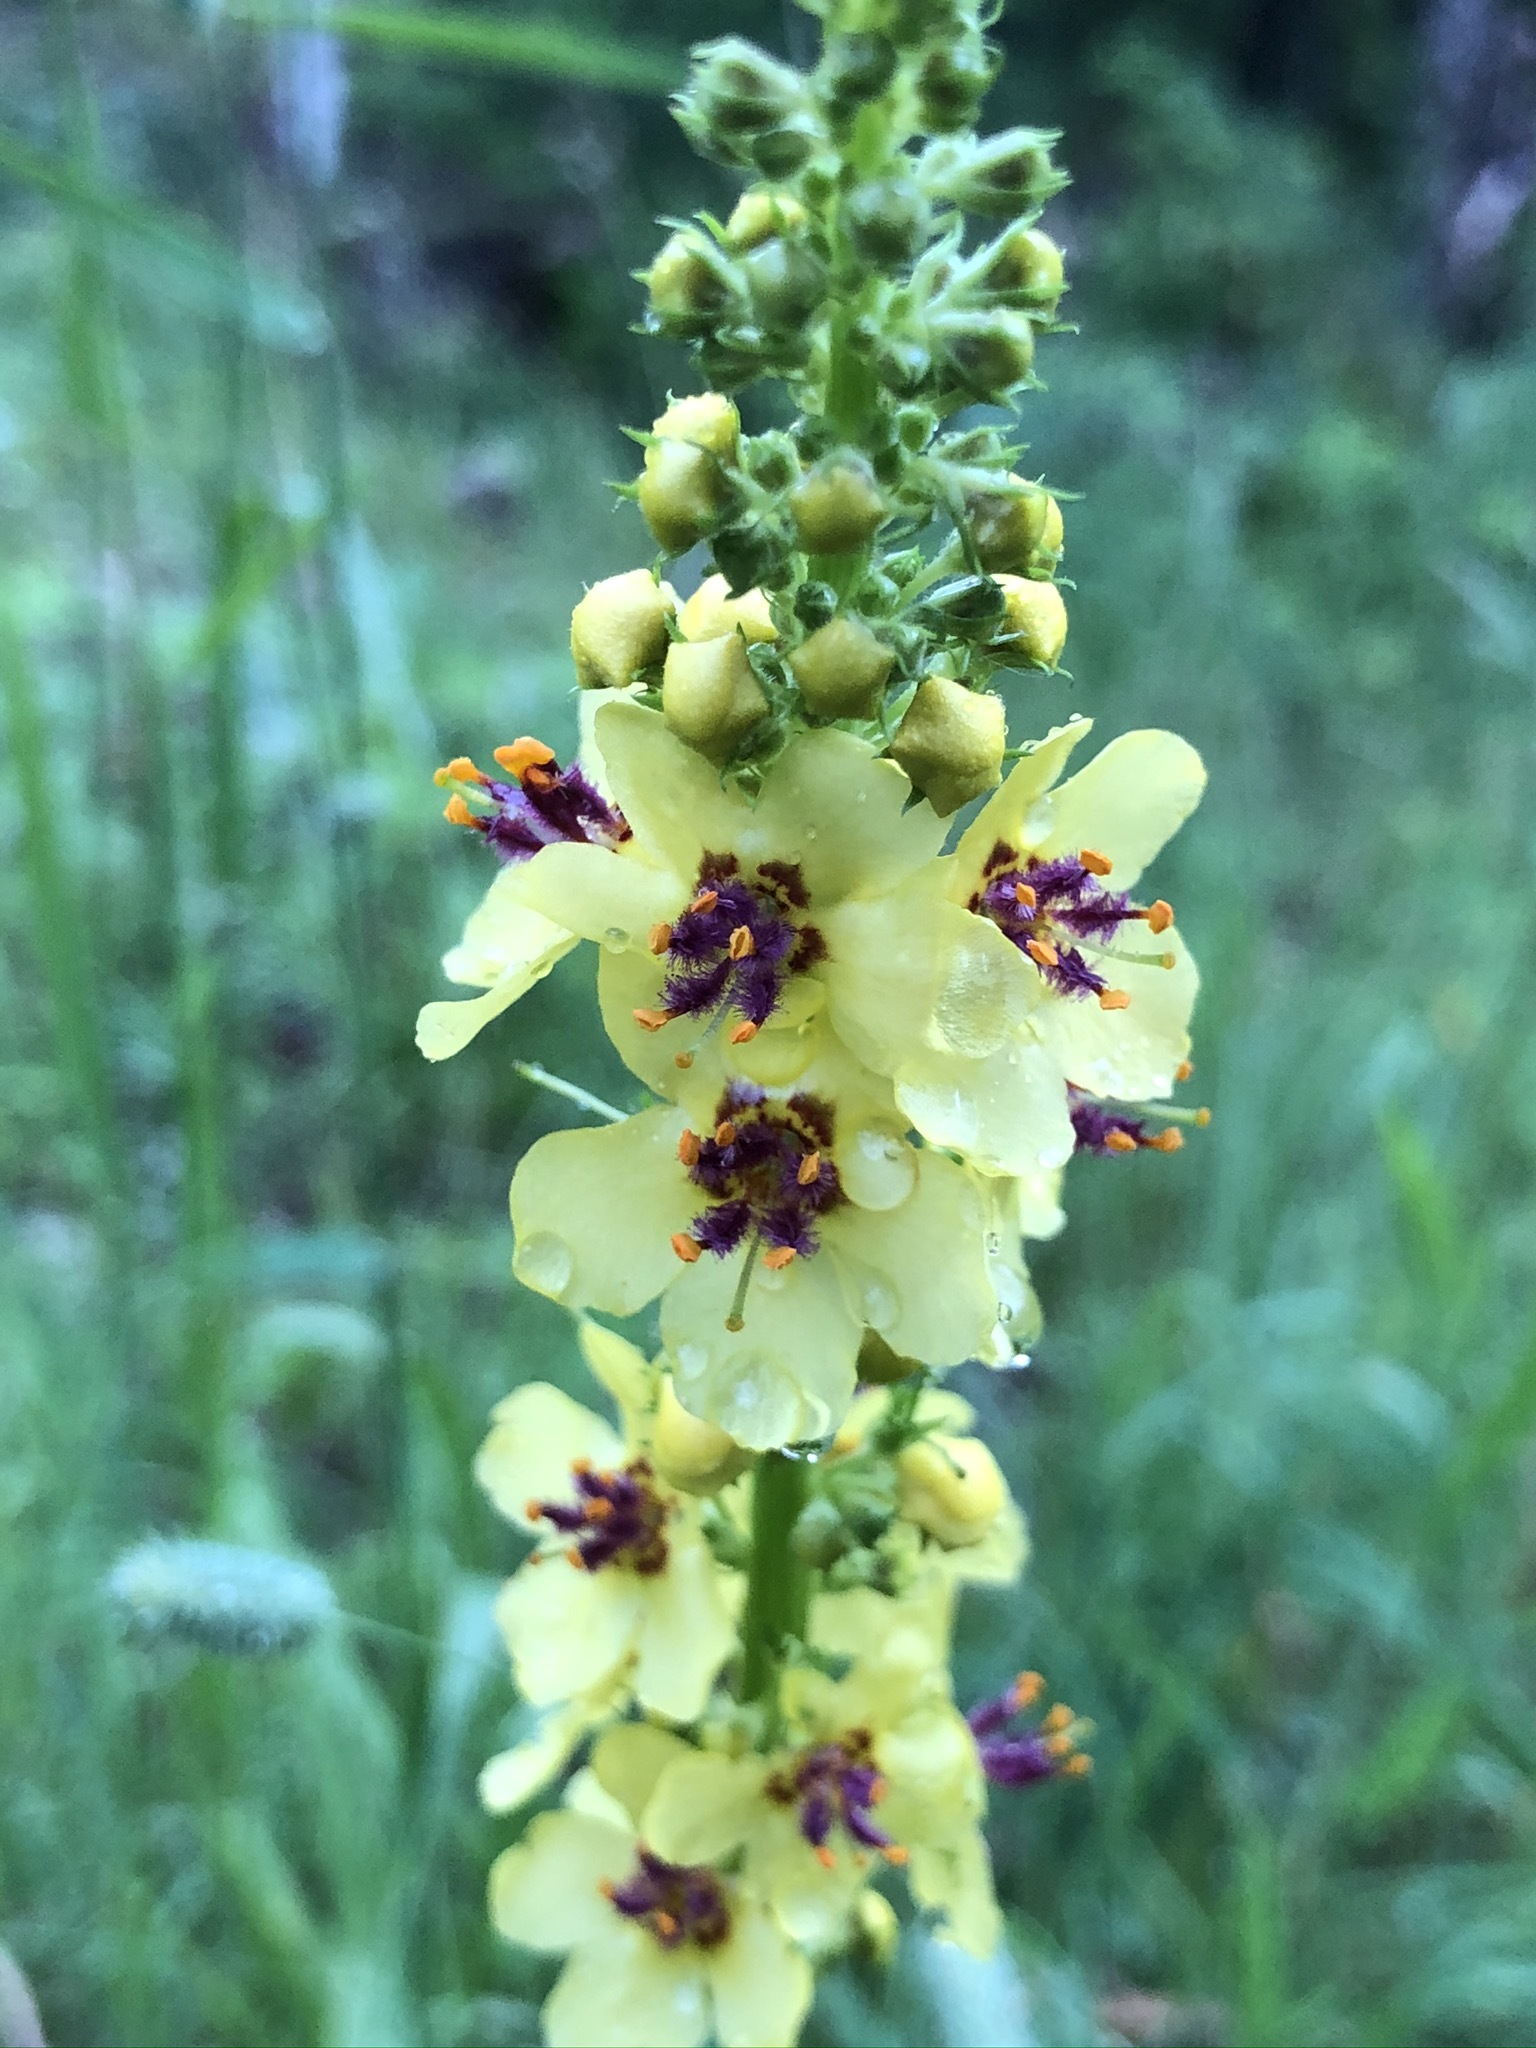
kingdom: Plantae
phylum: Tracheophyta
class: Magnoliopsida
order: Lamiales
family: Scrophulariaceae
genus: Verbascum
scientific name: Verbascum nigrum
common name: Dark mullein
